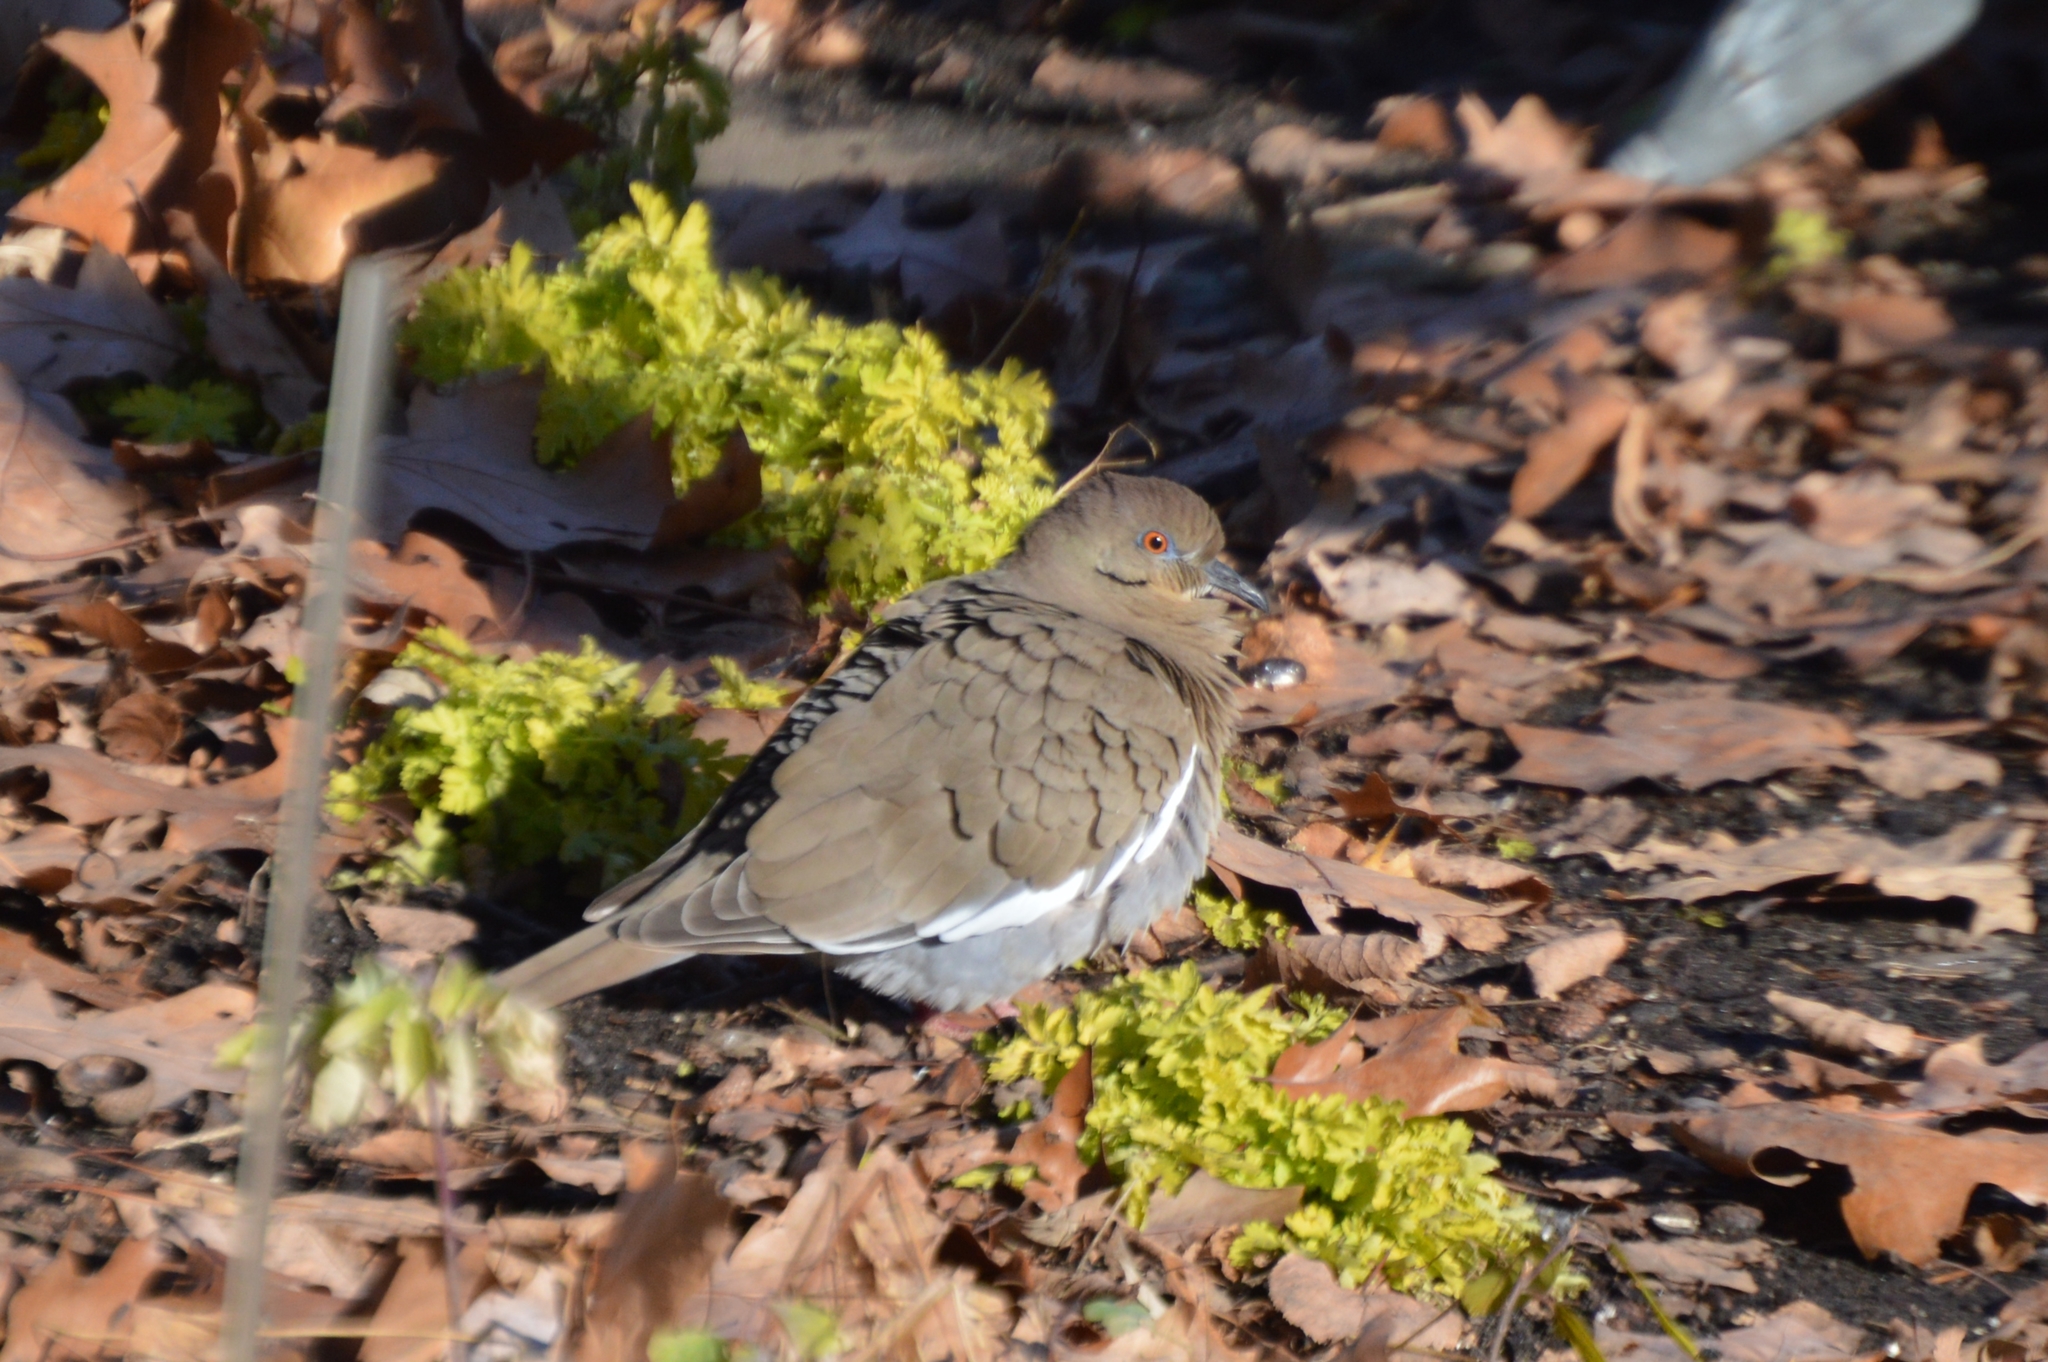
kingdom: Animalia
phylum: Chordata
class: Aves
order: Columbiformes
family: Columbidae
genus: Zenaida
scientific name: Zenaida asiatica
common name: White-winged dove
